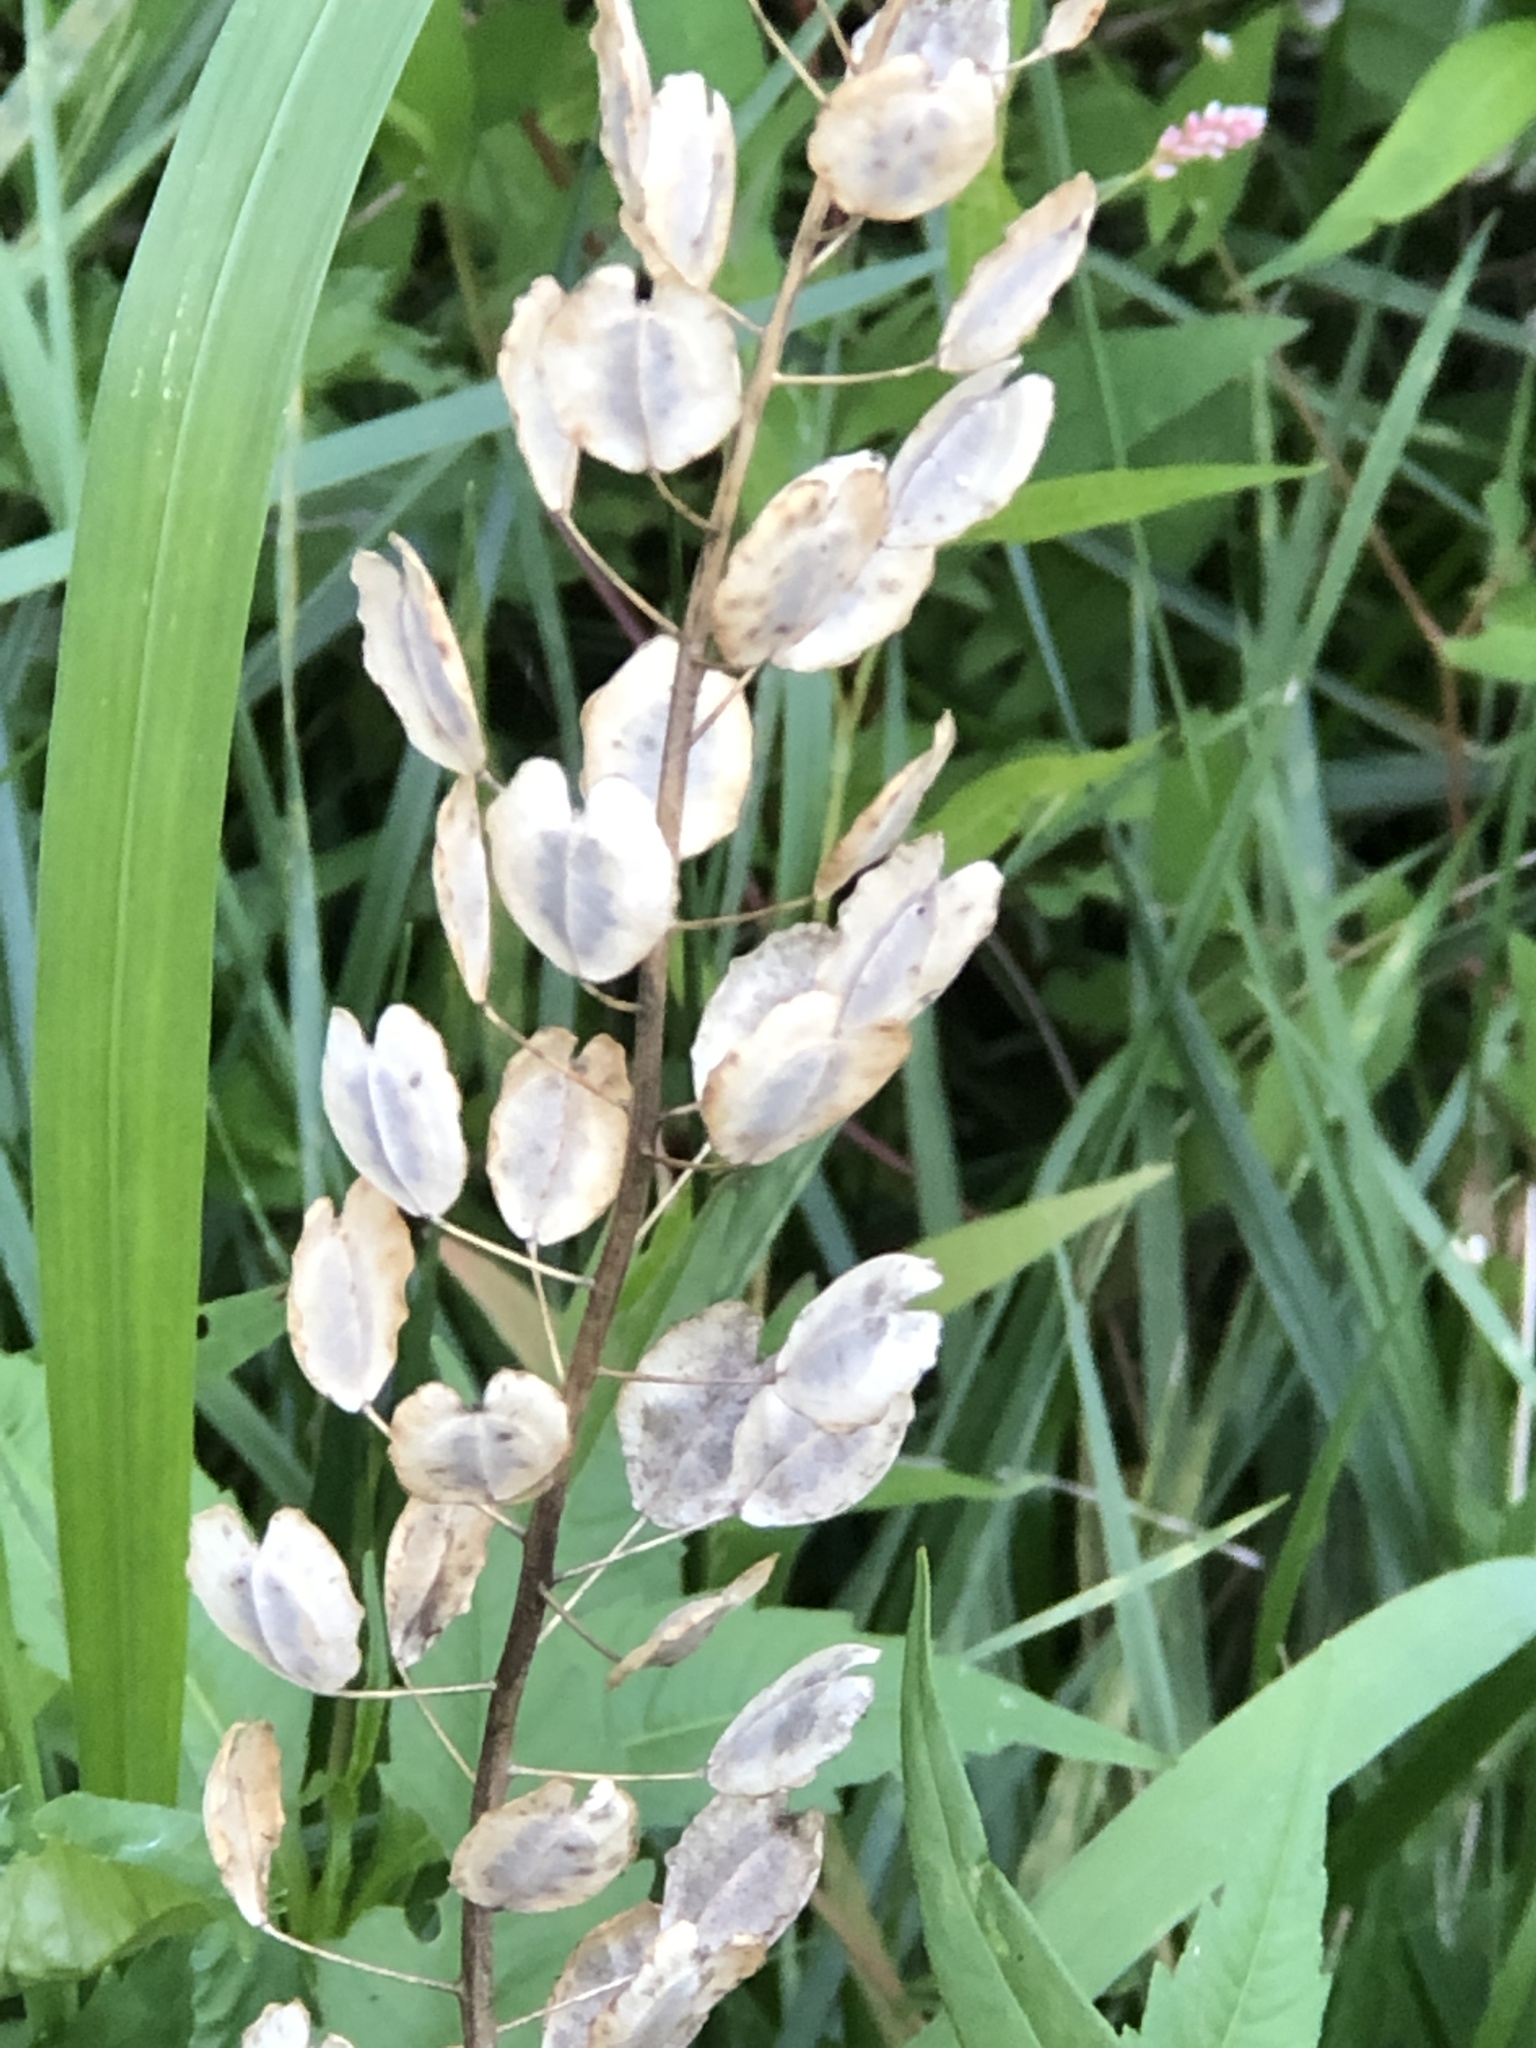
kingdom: Plantae
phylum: Tracheophyta
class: Magnoliopsida
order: Brassicales
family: Brassicaceae
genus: Thlaspi
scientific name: Thlaspi arvense
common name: Field pennycress
